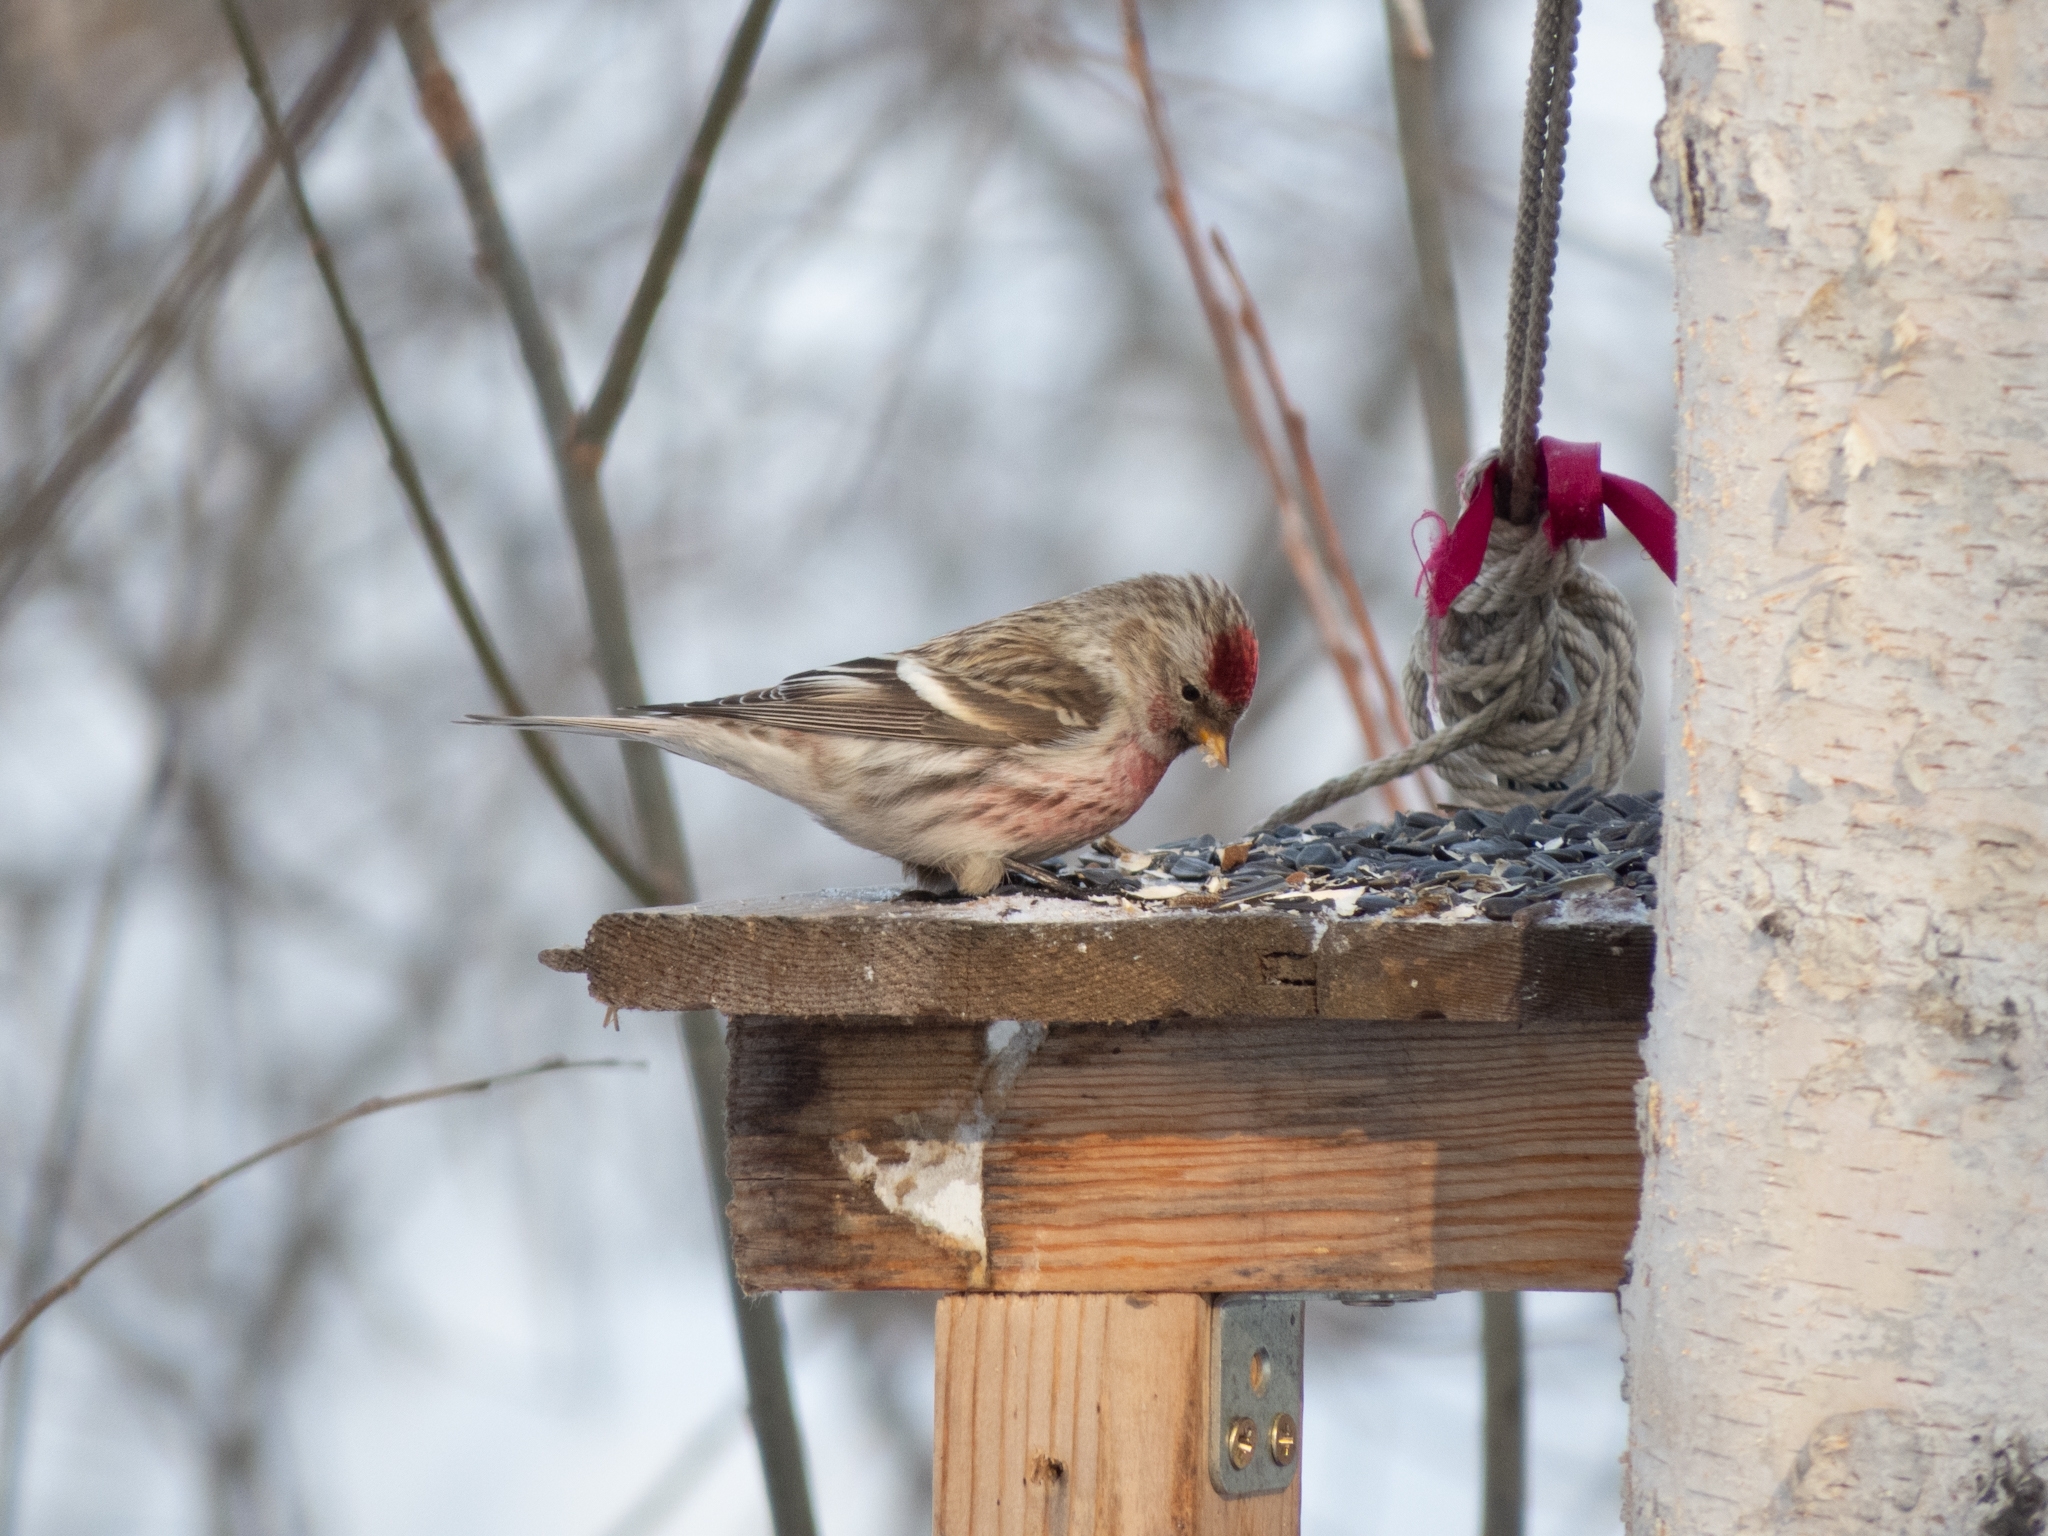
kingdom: Animalia
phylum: Chordata
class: Aves
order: Passeriformes
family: Fringillidae
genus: Acanthis
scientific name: Acanthis flammea
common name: Common redpoll
